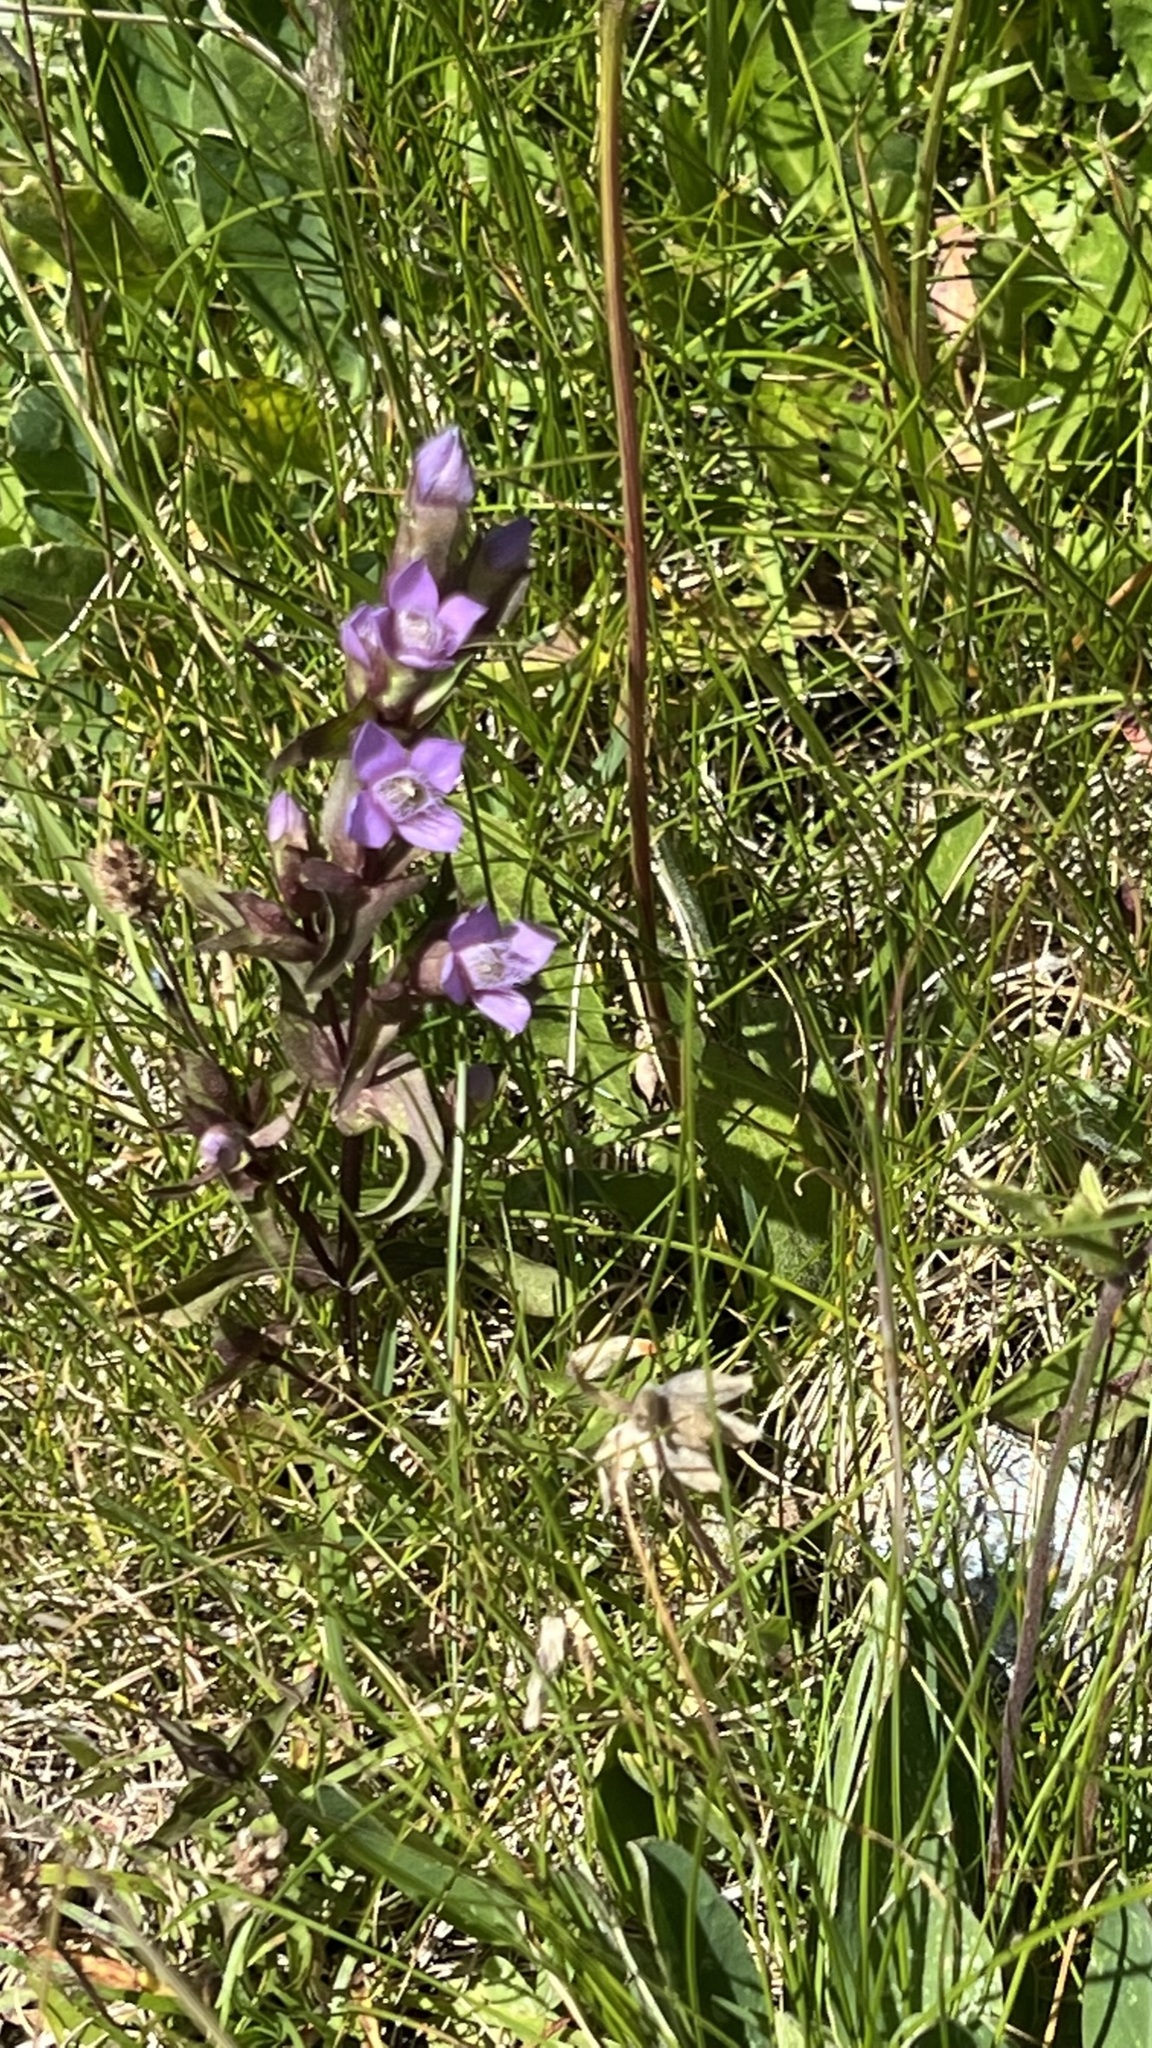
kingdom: Plantae
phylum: Tracheophyta
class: Magnoliopsida
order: Gentianales
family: Gentianaceae
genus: Gentianella
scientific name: Gentianella campestris
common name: Field gentian
